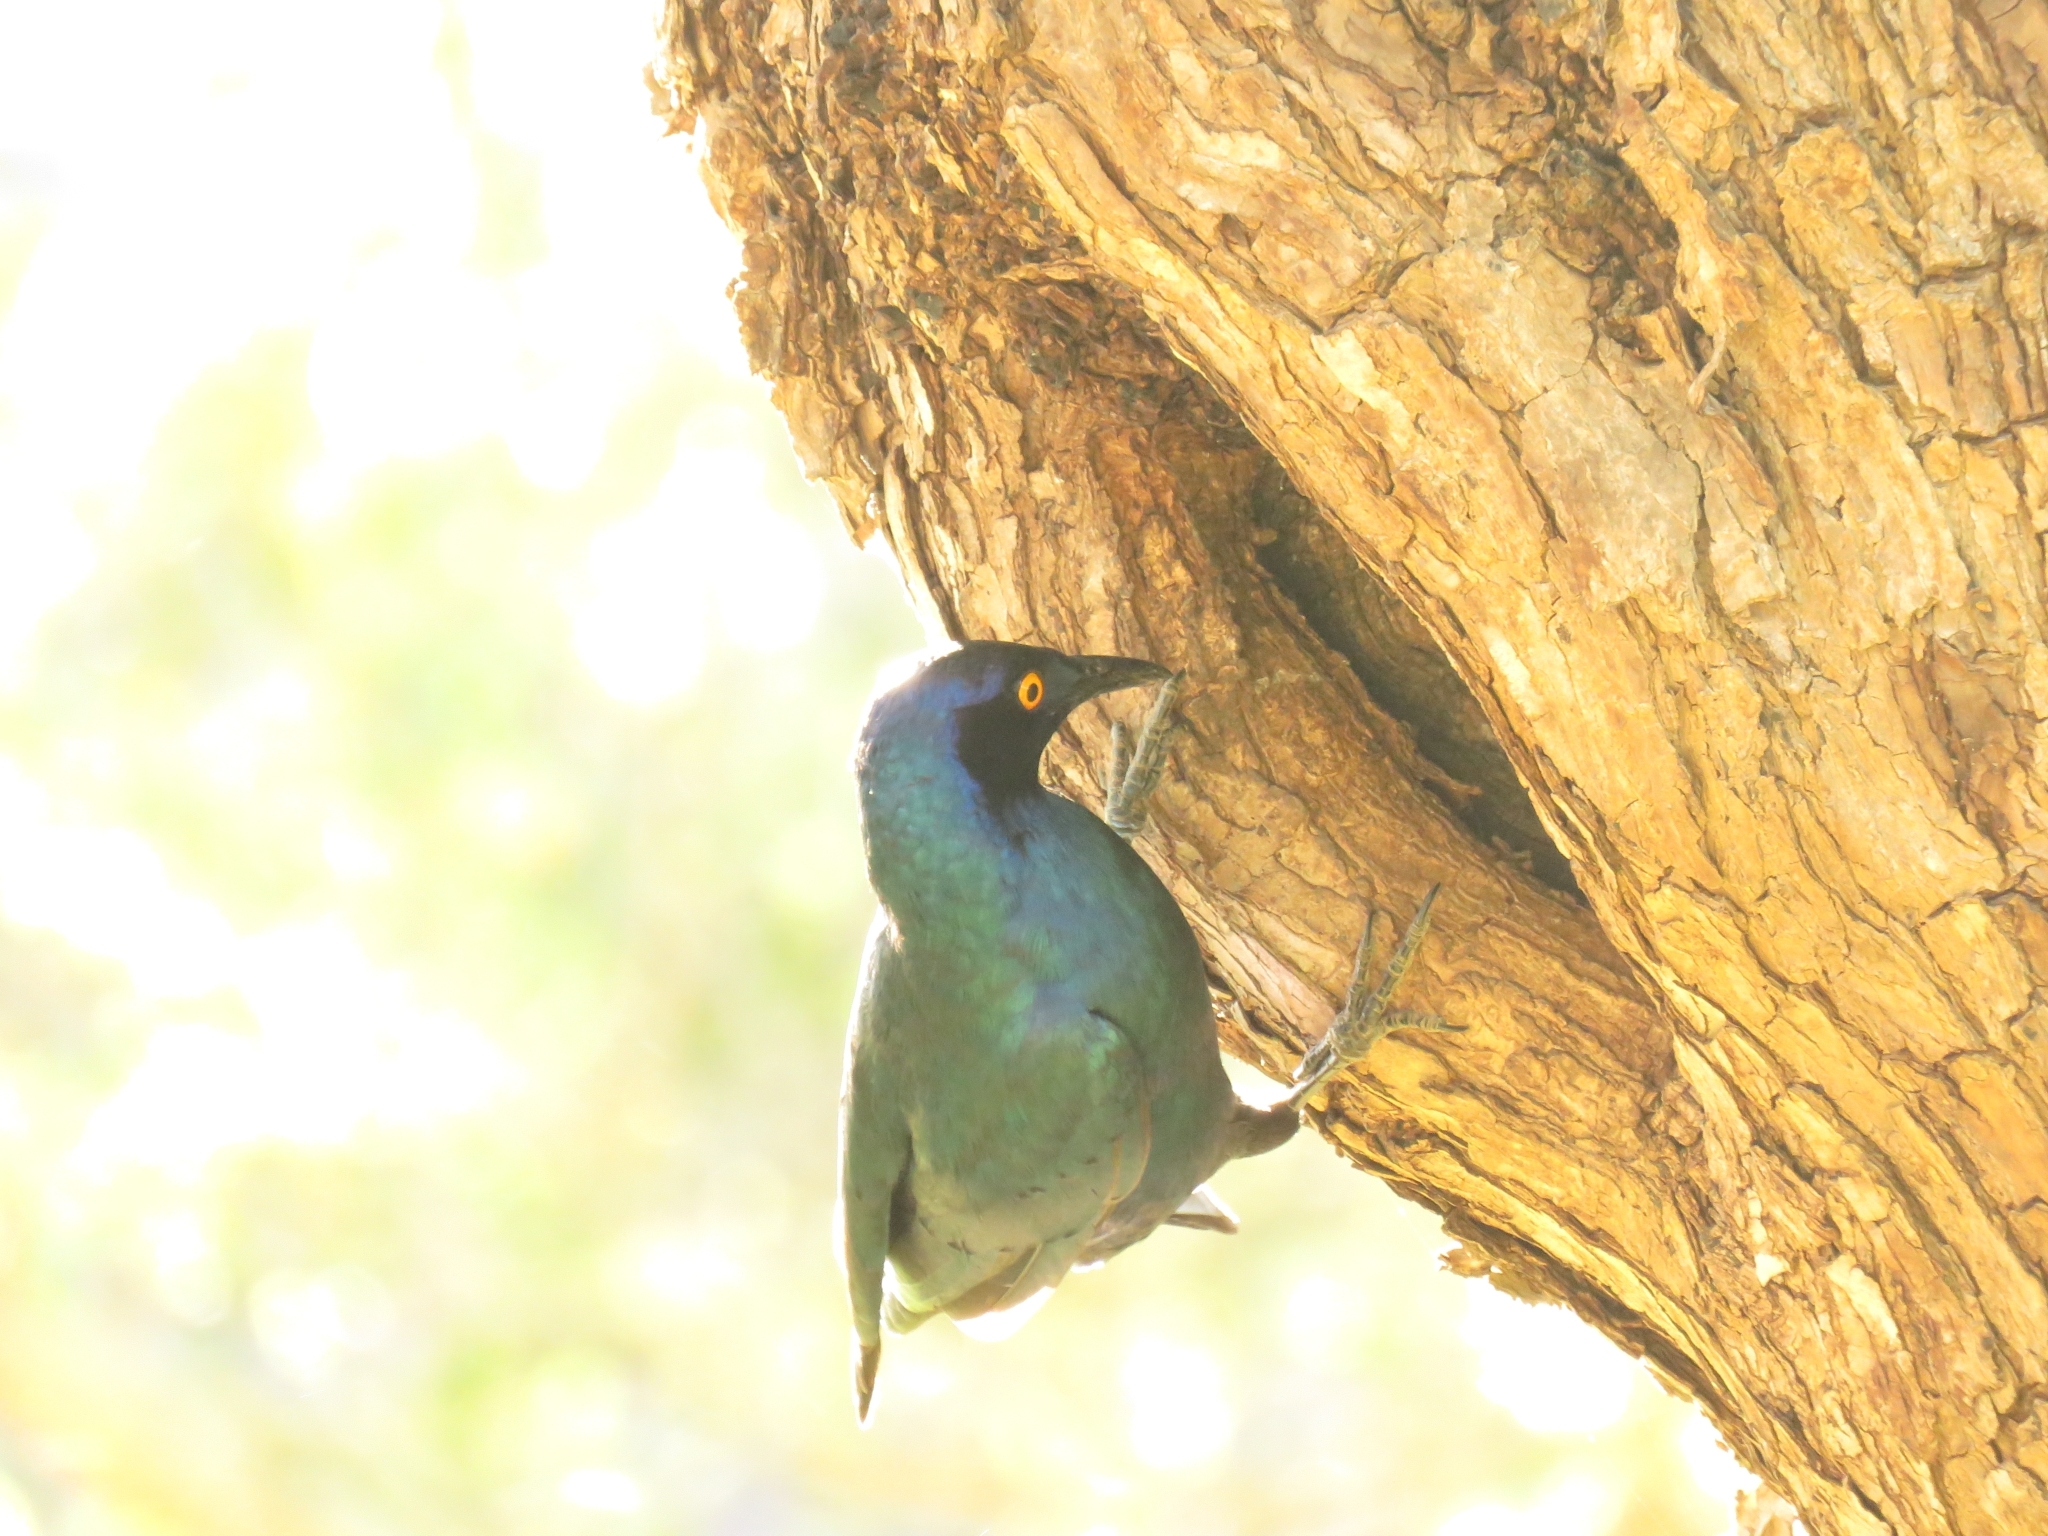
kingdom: Animalia
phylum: Chordata
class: Aves
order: Passeriformes
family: Sturnidae
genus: Lamprotornis
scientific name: Lamprotornis nitens
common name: Cape starling
